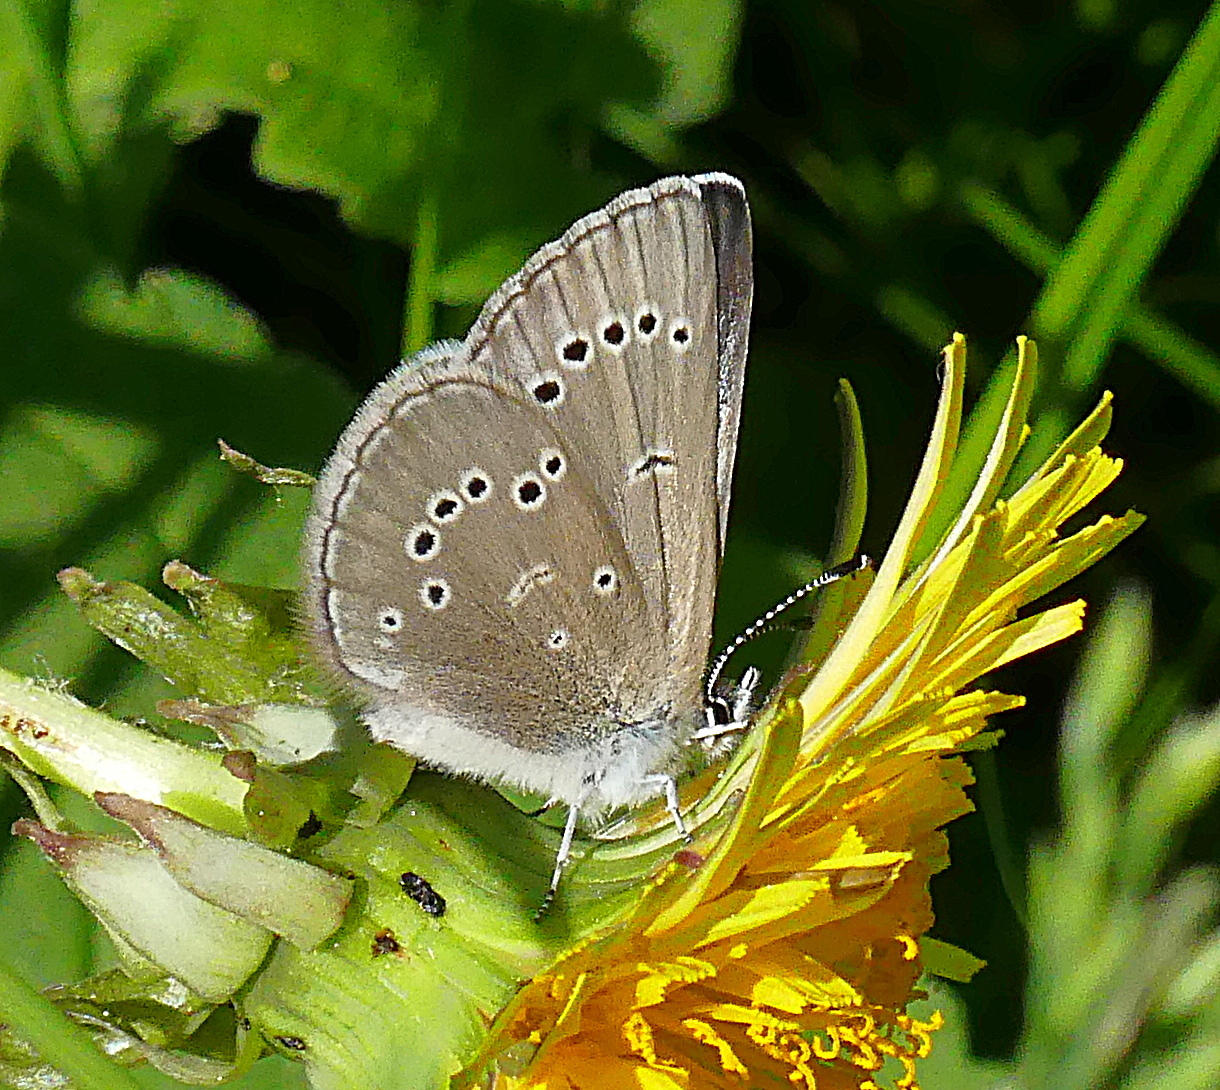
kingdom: Animalia
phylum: Arthropoda
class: Insecta
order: Lepidoptera
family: Lycaenidae
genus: Glaucopsyche
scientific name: Glaucopsyche lygdamus
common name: Silvery blue
